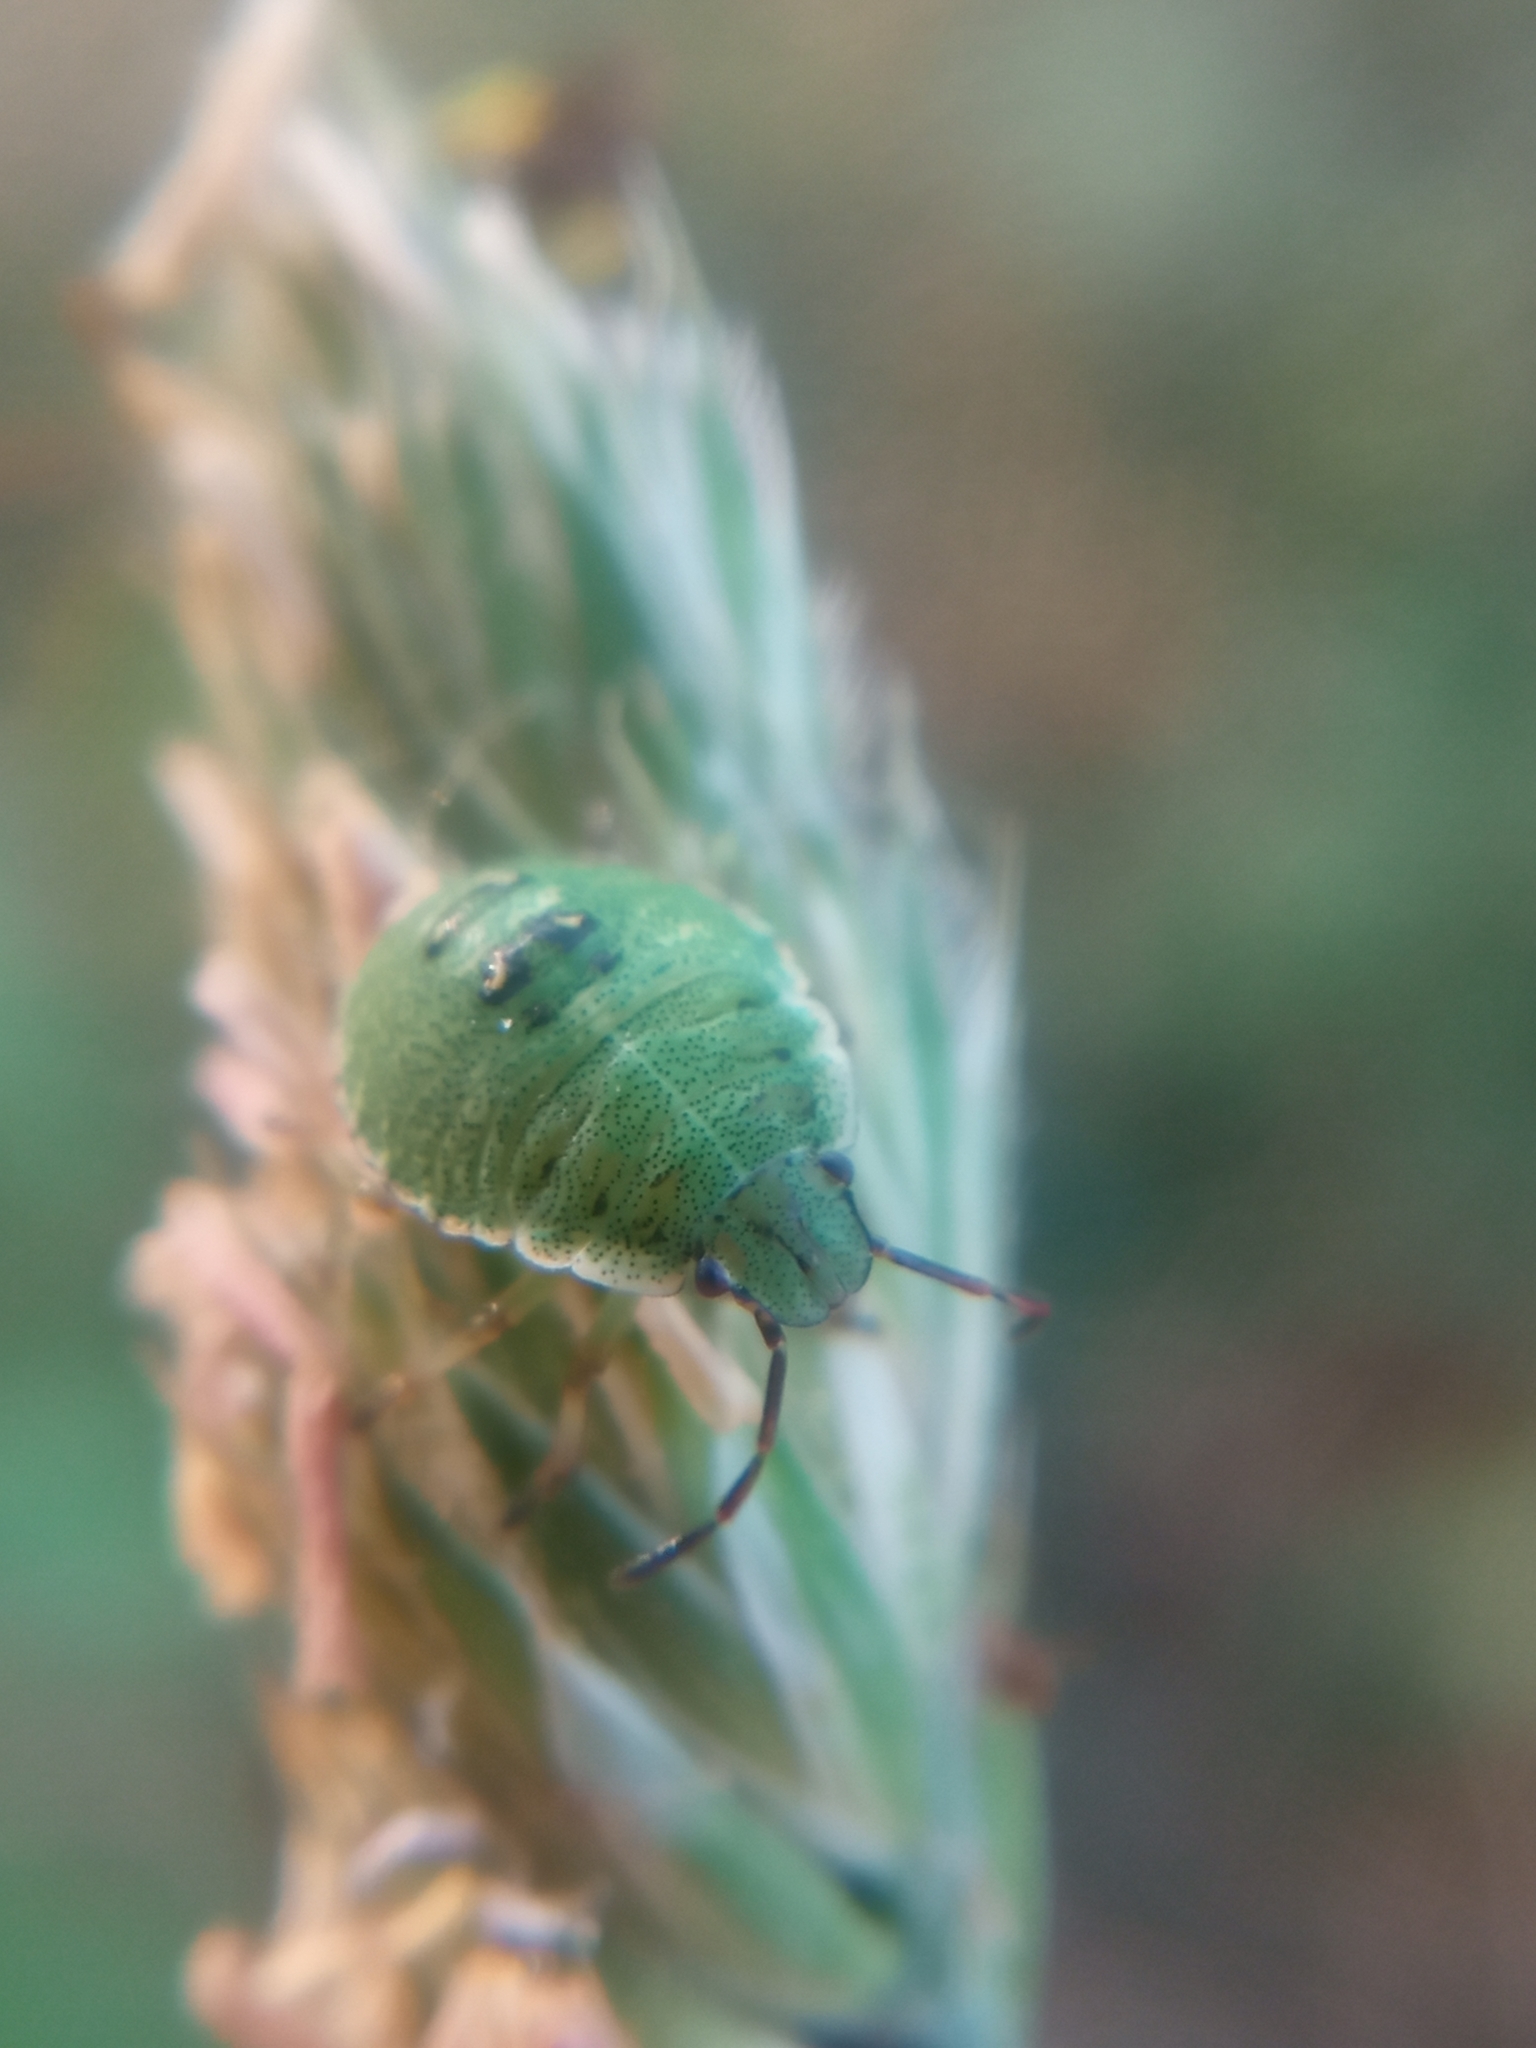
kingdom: Animalia
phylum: Arthropoda
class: Insecta
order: Hemiptera
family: Pentatomidae
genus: Palomena
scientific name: Palomena prasina
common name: Green shieldbug
